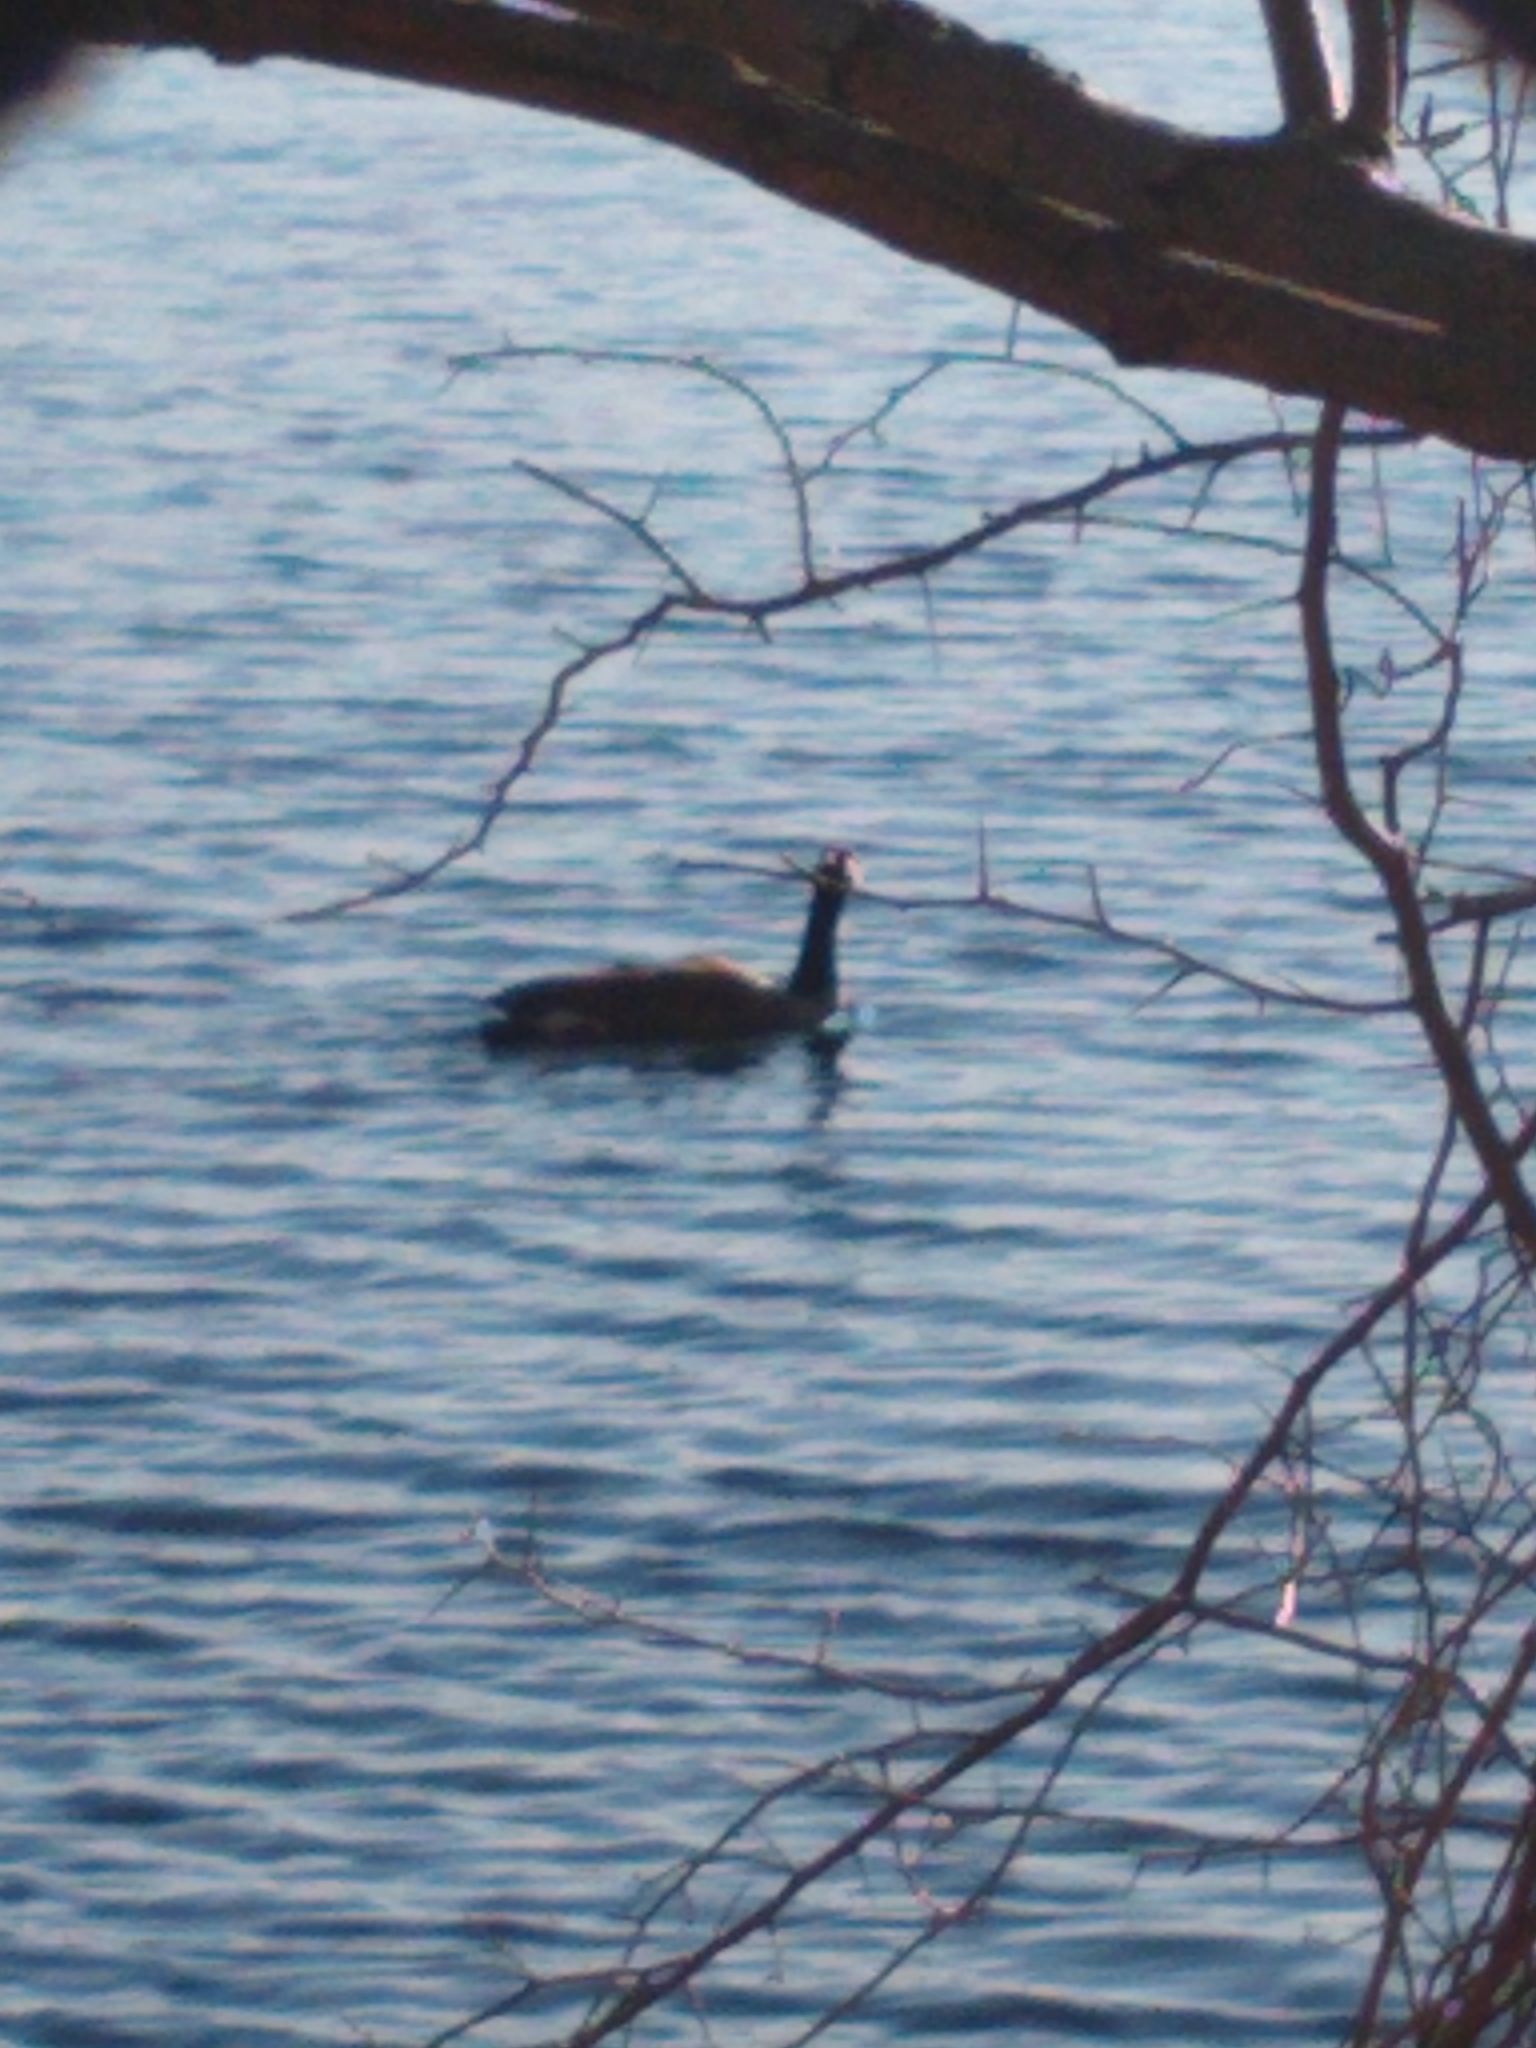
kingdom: Animalia
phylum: Chordata
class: Aves
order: Anseriformes
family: Anatidae
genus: Branta
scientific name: Branta canadensis
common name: Canada goose
